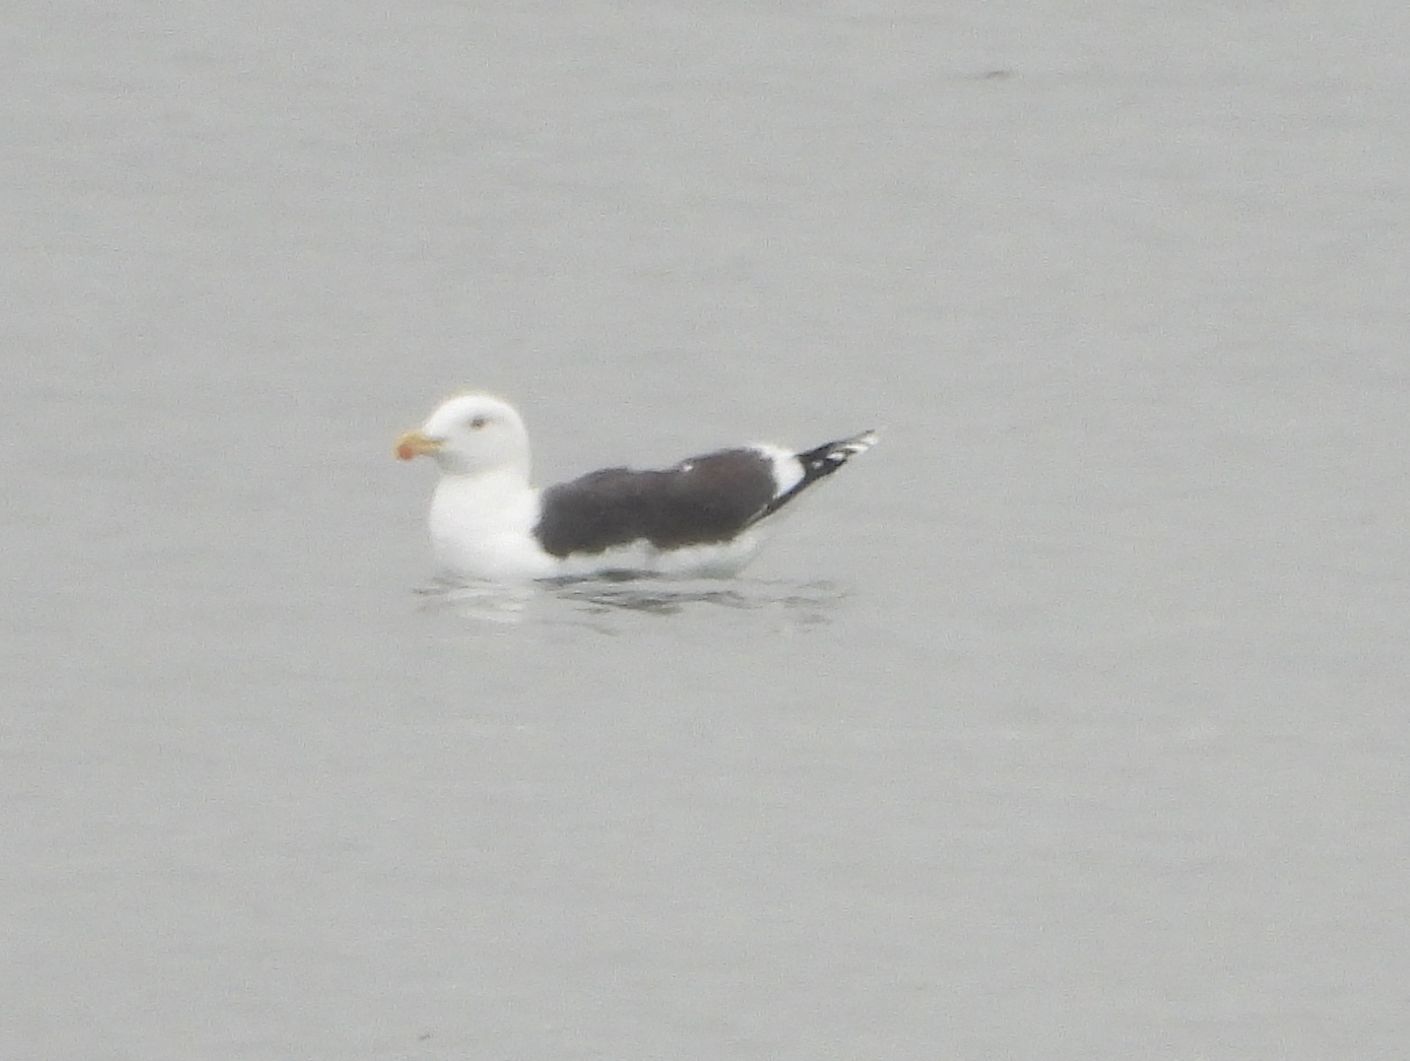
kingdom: Animalia
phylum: Chordata
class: Aves
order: Charadriiformes
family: Laridae
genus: Larus
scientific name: Larus marinus
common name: Great black-backed gull
